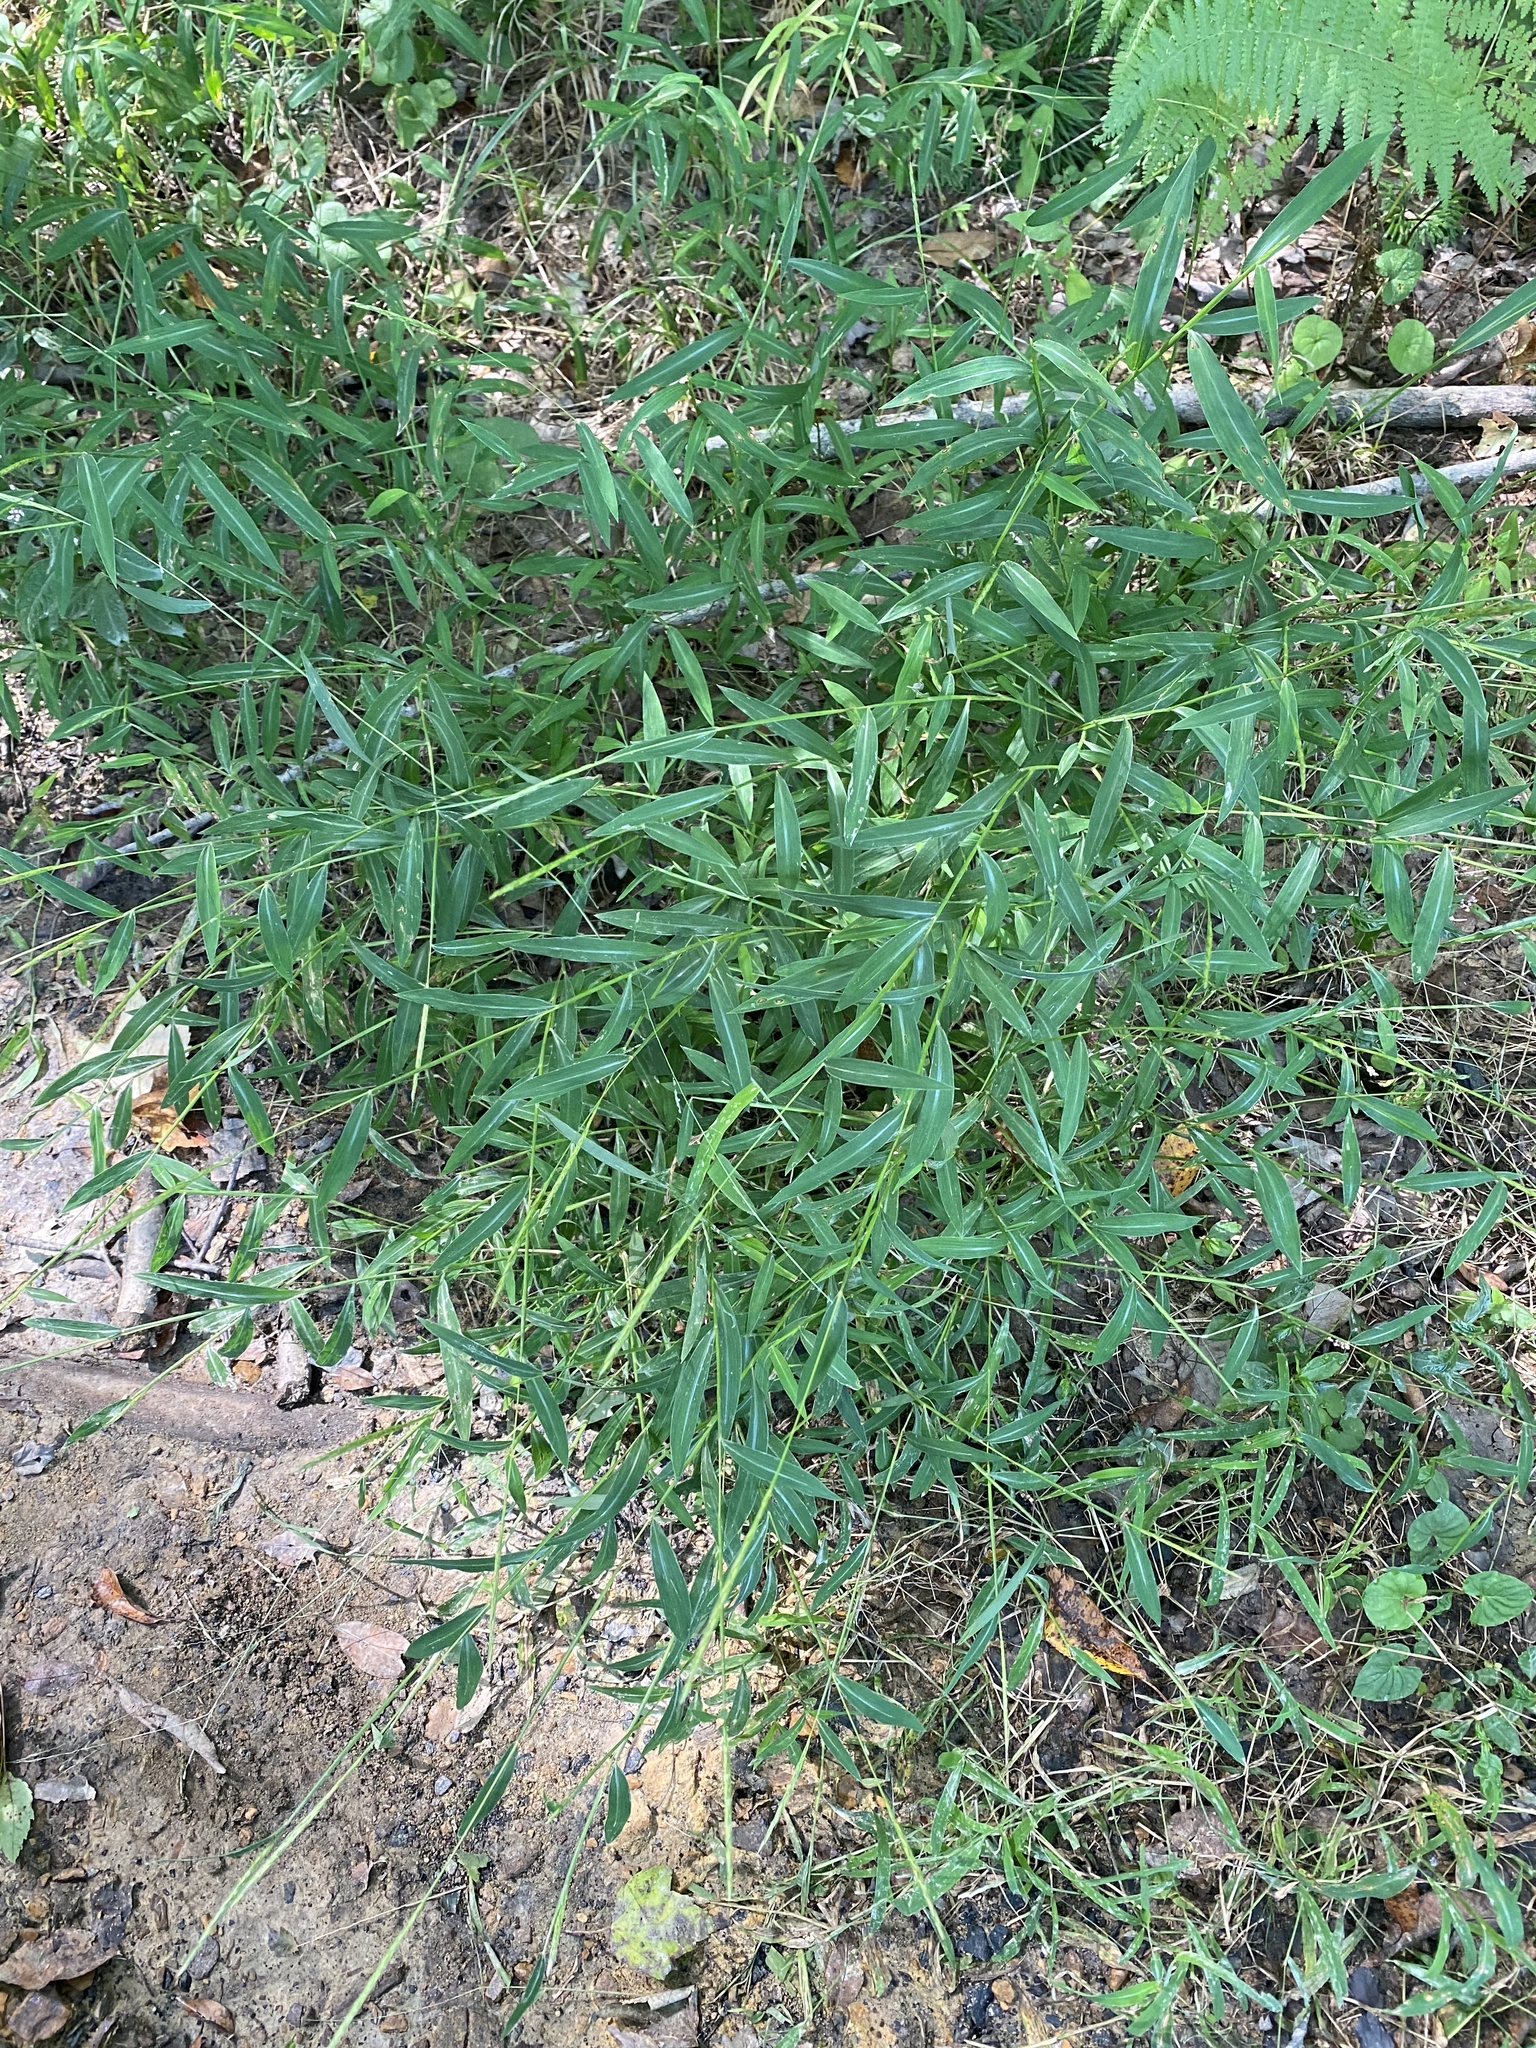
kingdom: Plantae
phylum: Tracheophyta
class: Liliopsida
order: Poales
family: Poaceae
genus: Microstegium
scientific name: Microstegium vimineum
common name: Japanese stiltgrass
